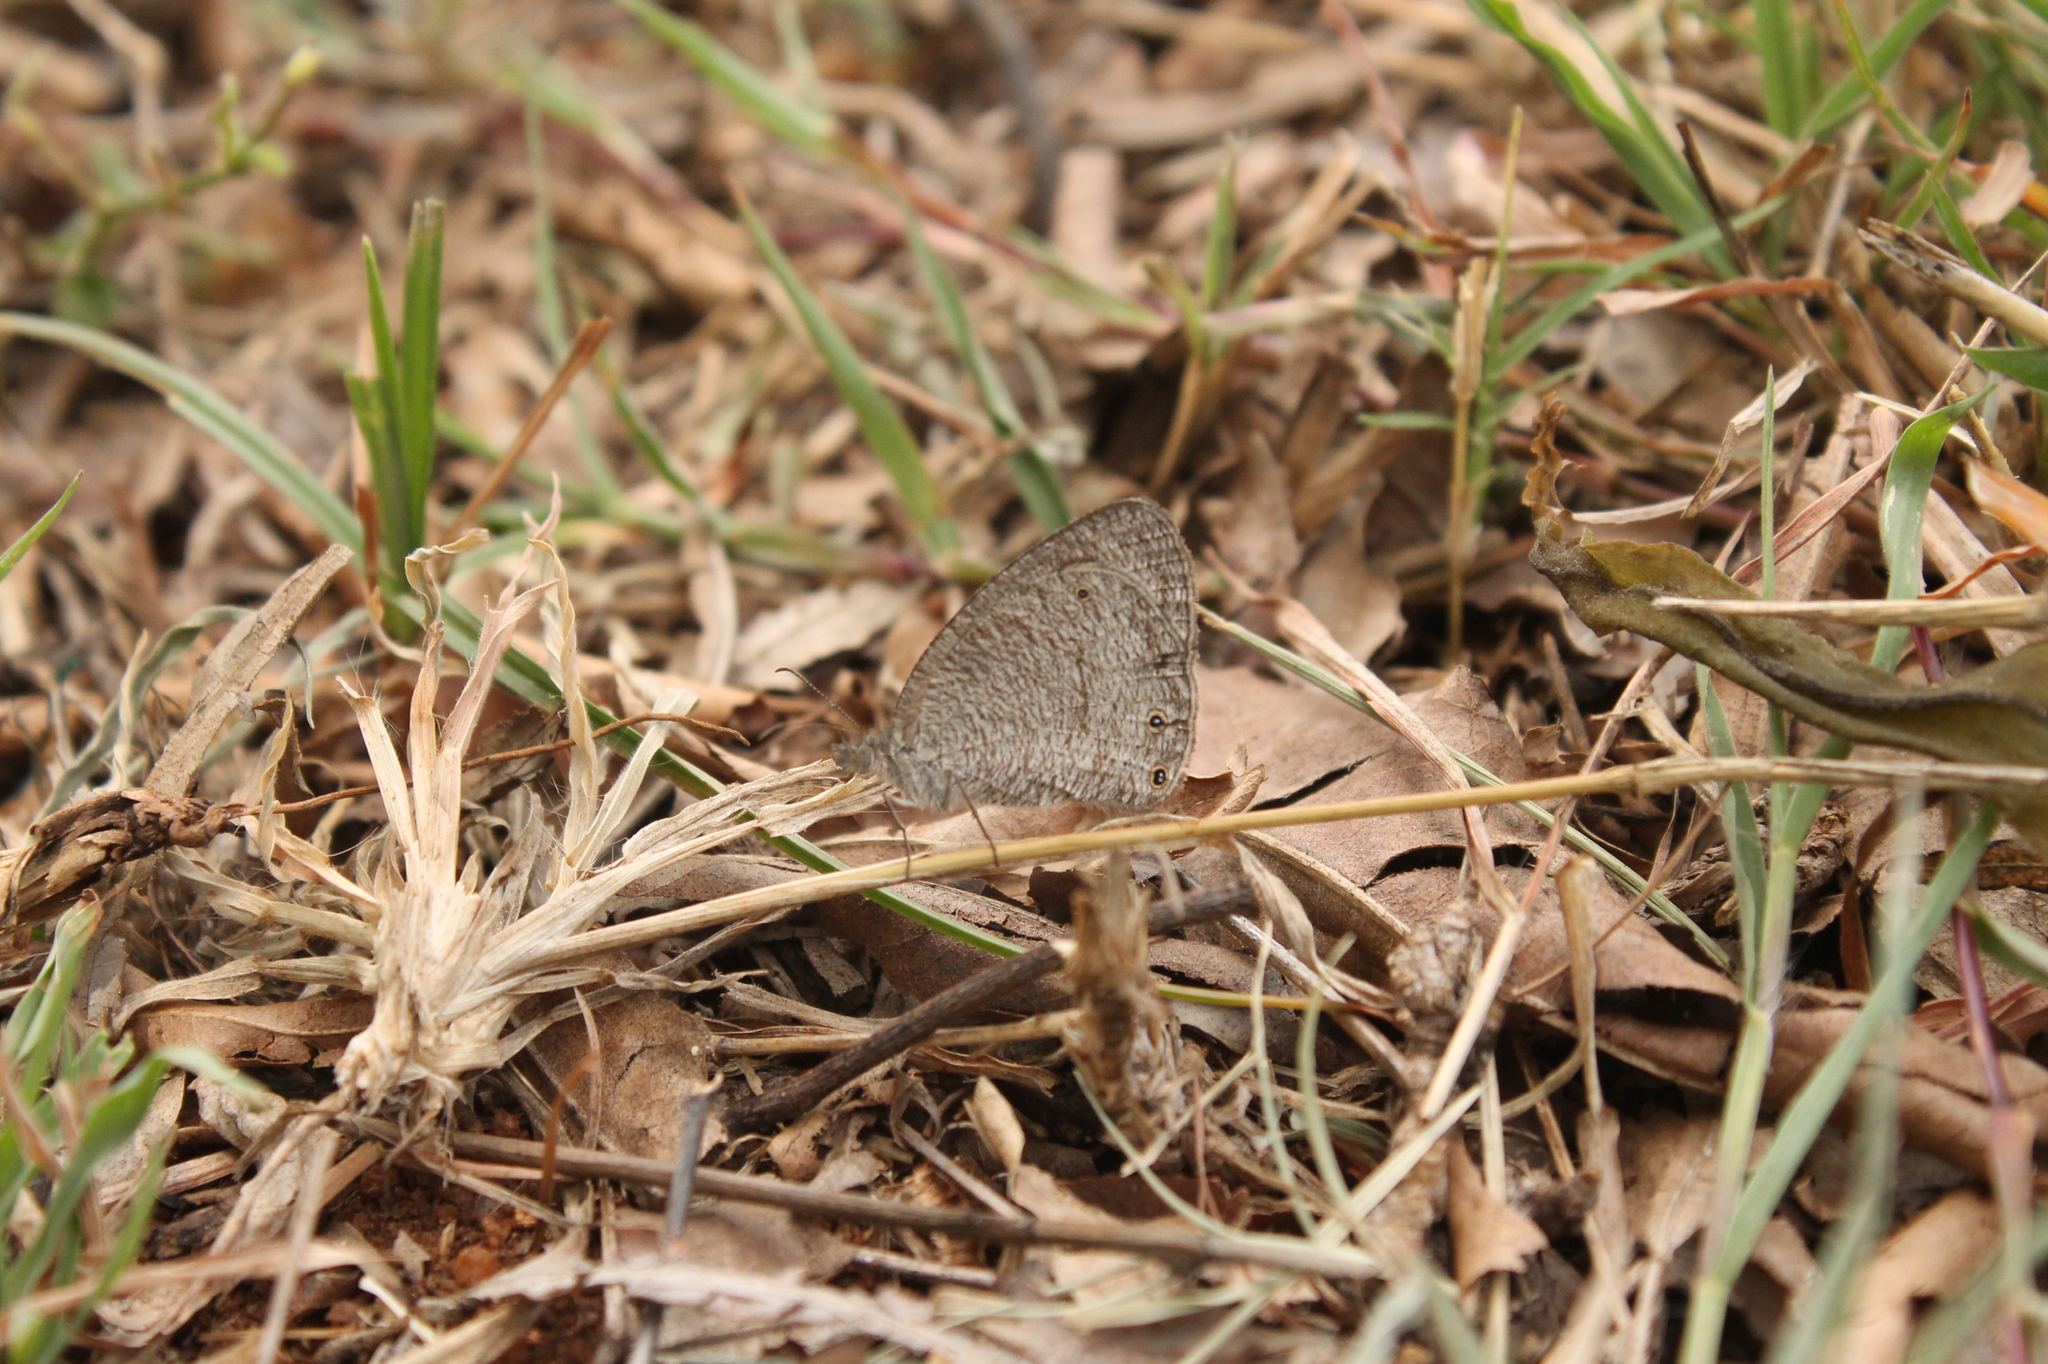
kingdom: Animalia
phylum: Arthropoda
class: Insecta
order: Lepidoptera
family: Nymphalidae
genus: Ypthima
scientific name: Ypthima asterope
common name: African ringlet
